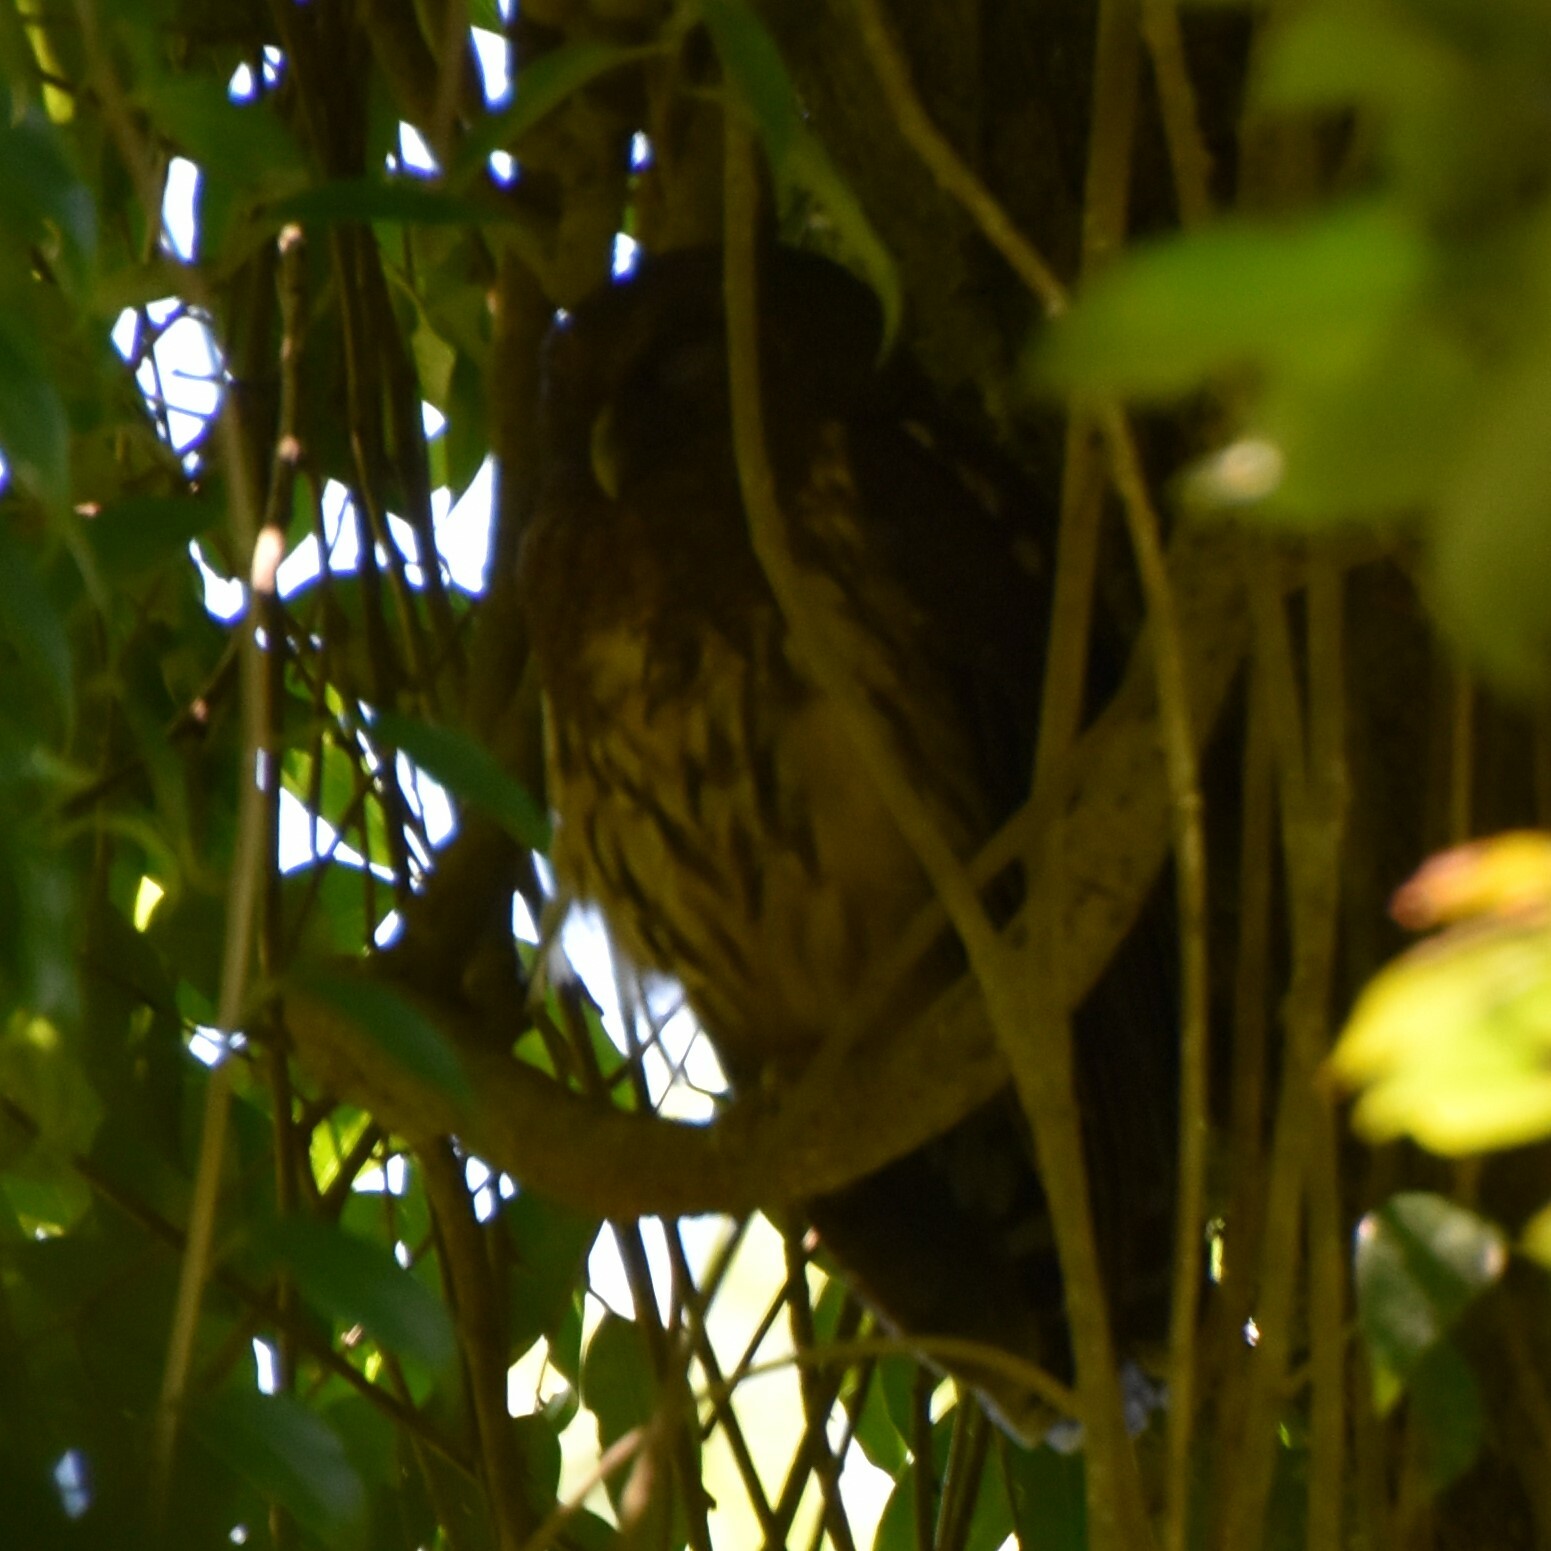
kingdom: Animalia
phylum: Chordata
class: Aves
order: Strigiformes
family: Strigidae
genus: Strix
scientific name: Strix virgata
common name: Mottled owl
